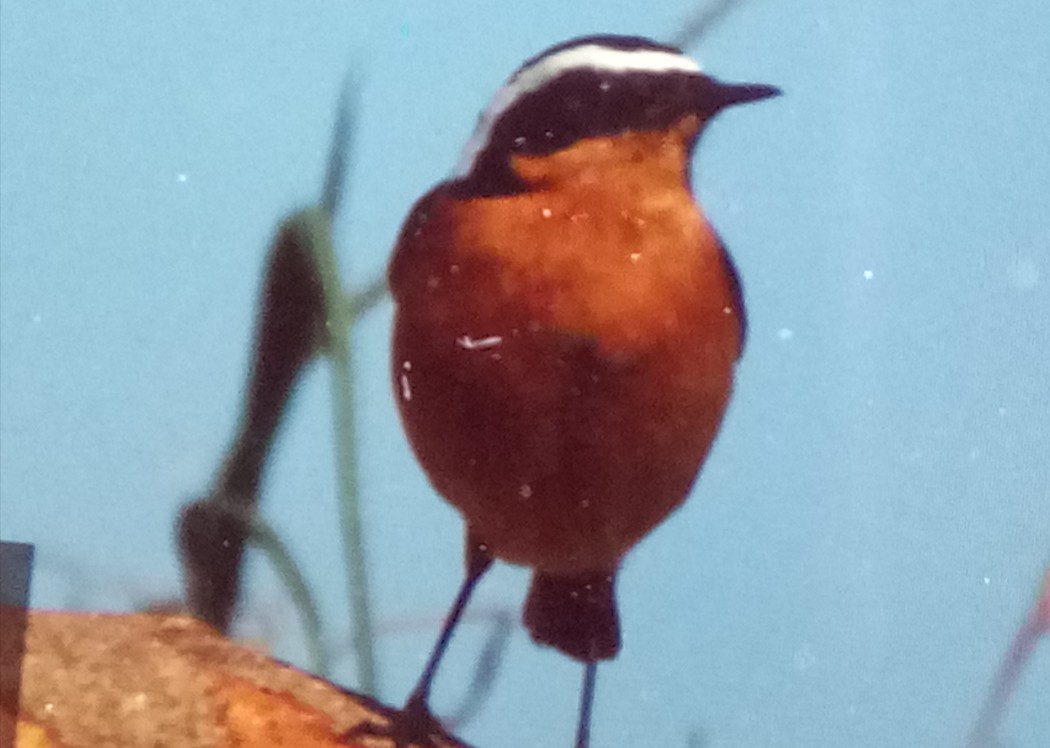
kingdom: Animalia
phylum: Chordata
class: Aves
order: Passeriformes
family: Muscicapidae
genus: Phoenicurus
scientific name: Phoenicurus moussieri
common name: Moussier's redstart
